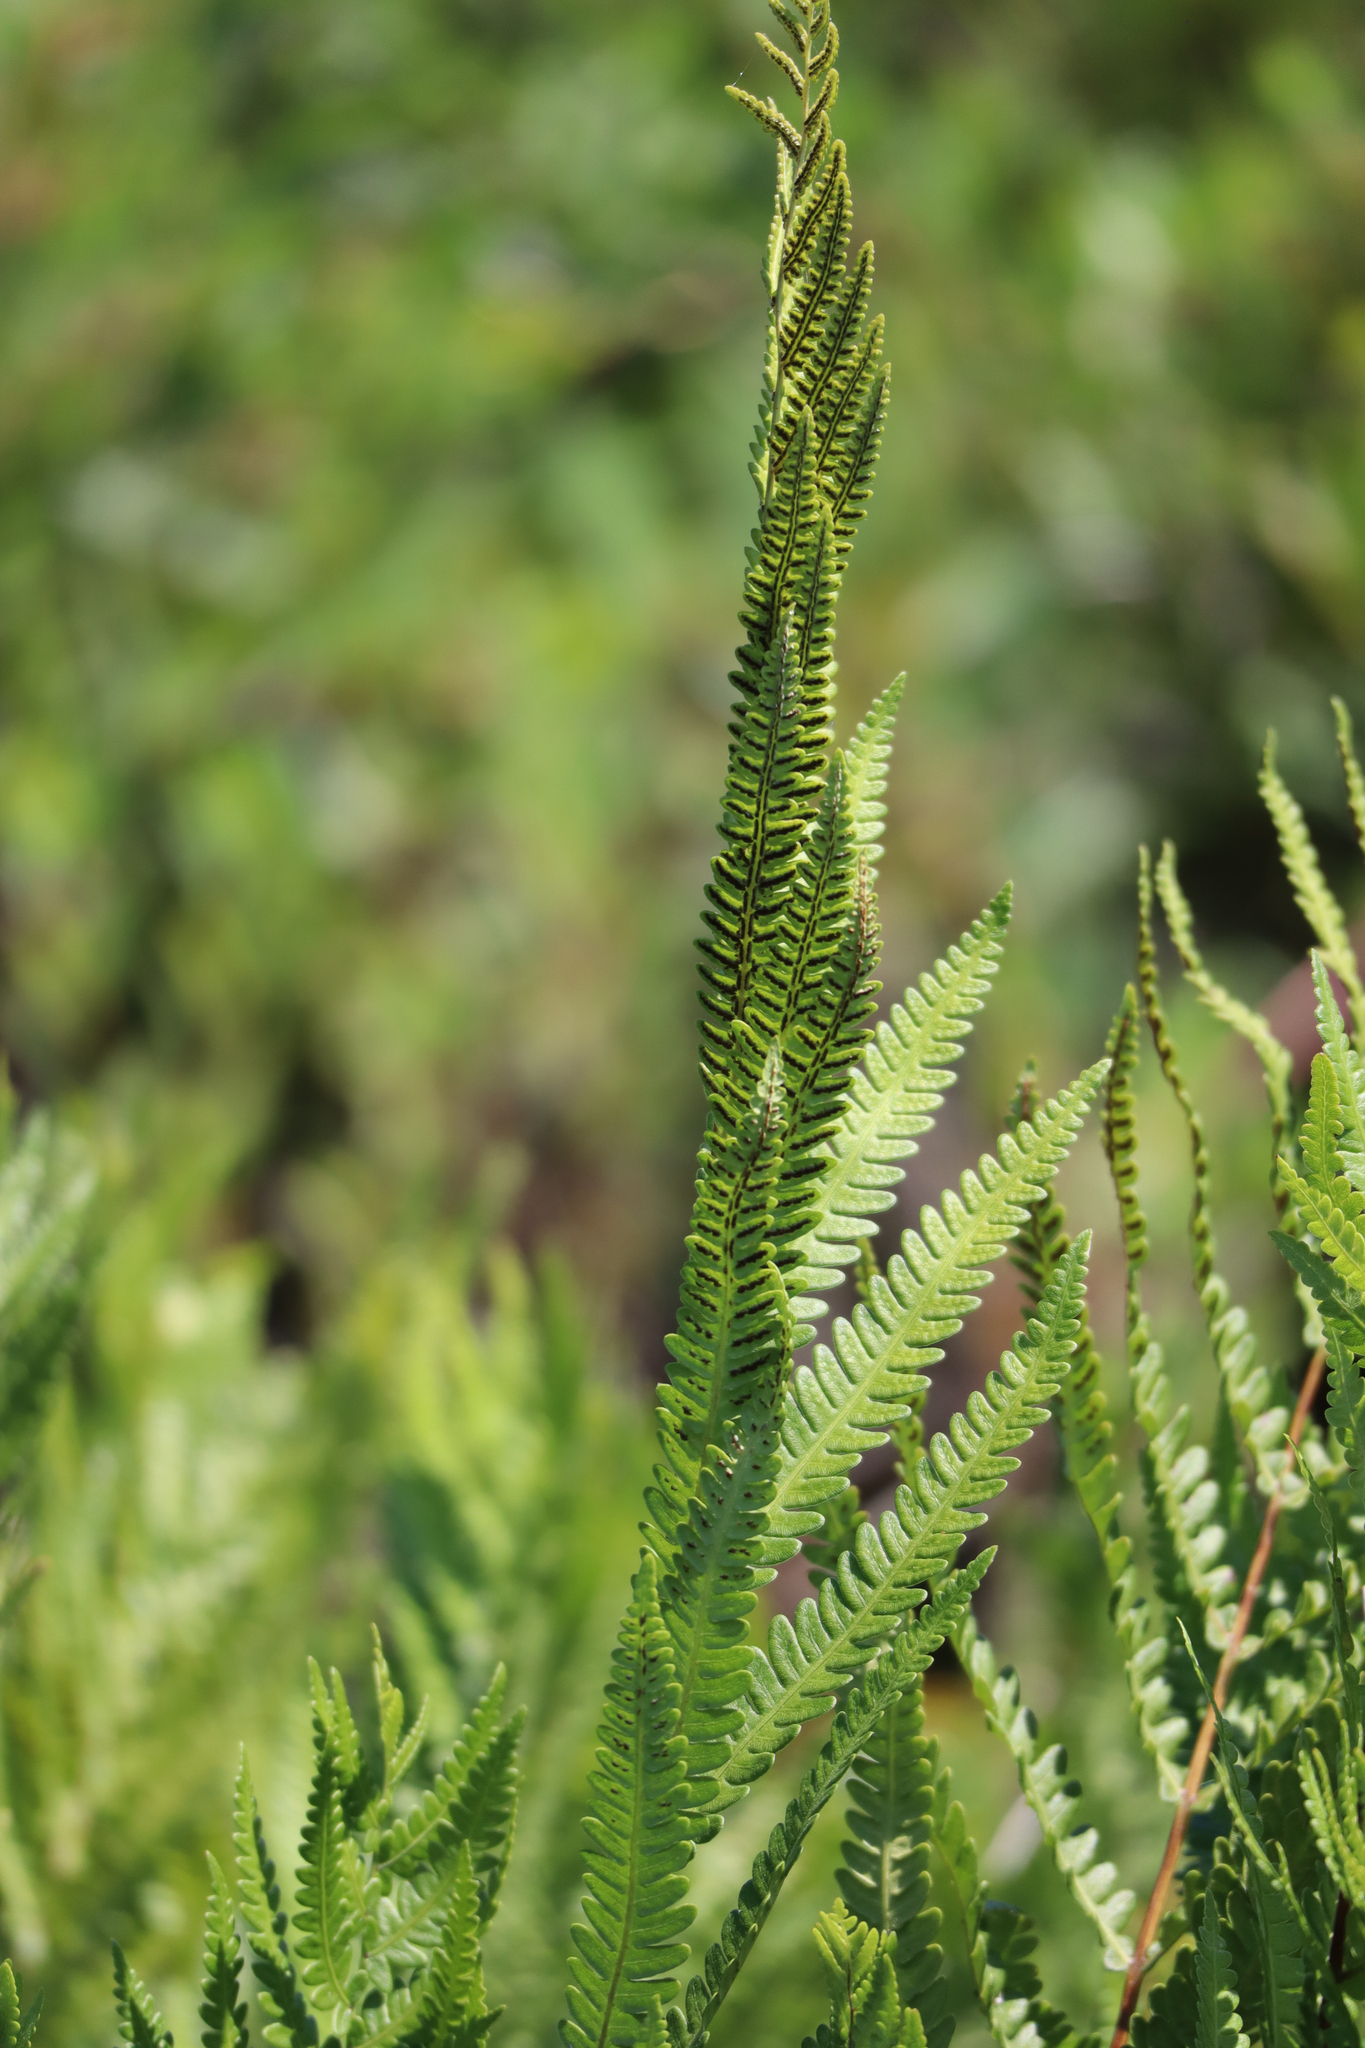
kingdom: Plantae
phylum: Tracheophyta
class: Polypodiopsida
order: Polypodiales
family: Blechnaceae
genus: Anchistea
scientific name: Anchistea virginica
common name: Virginia chain fern
